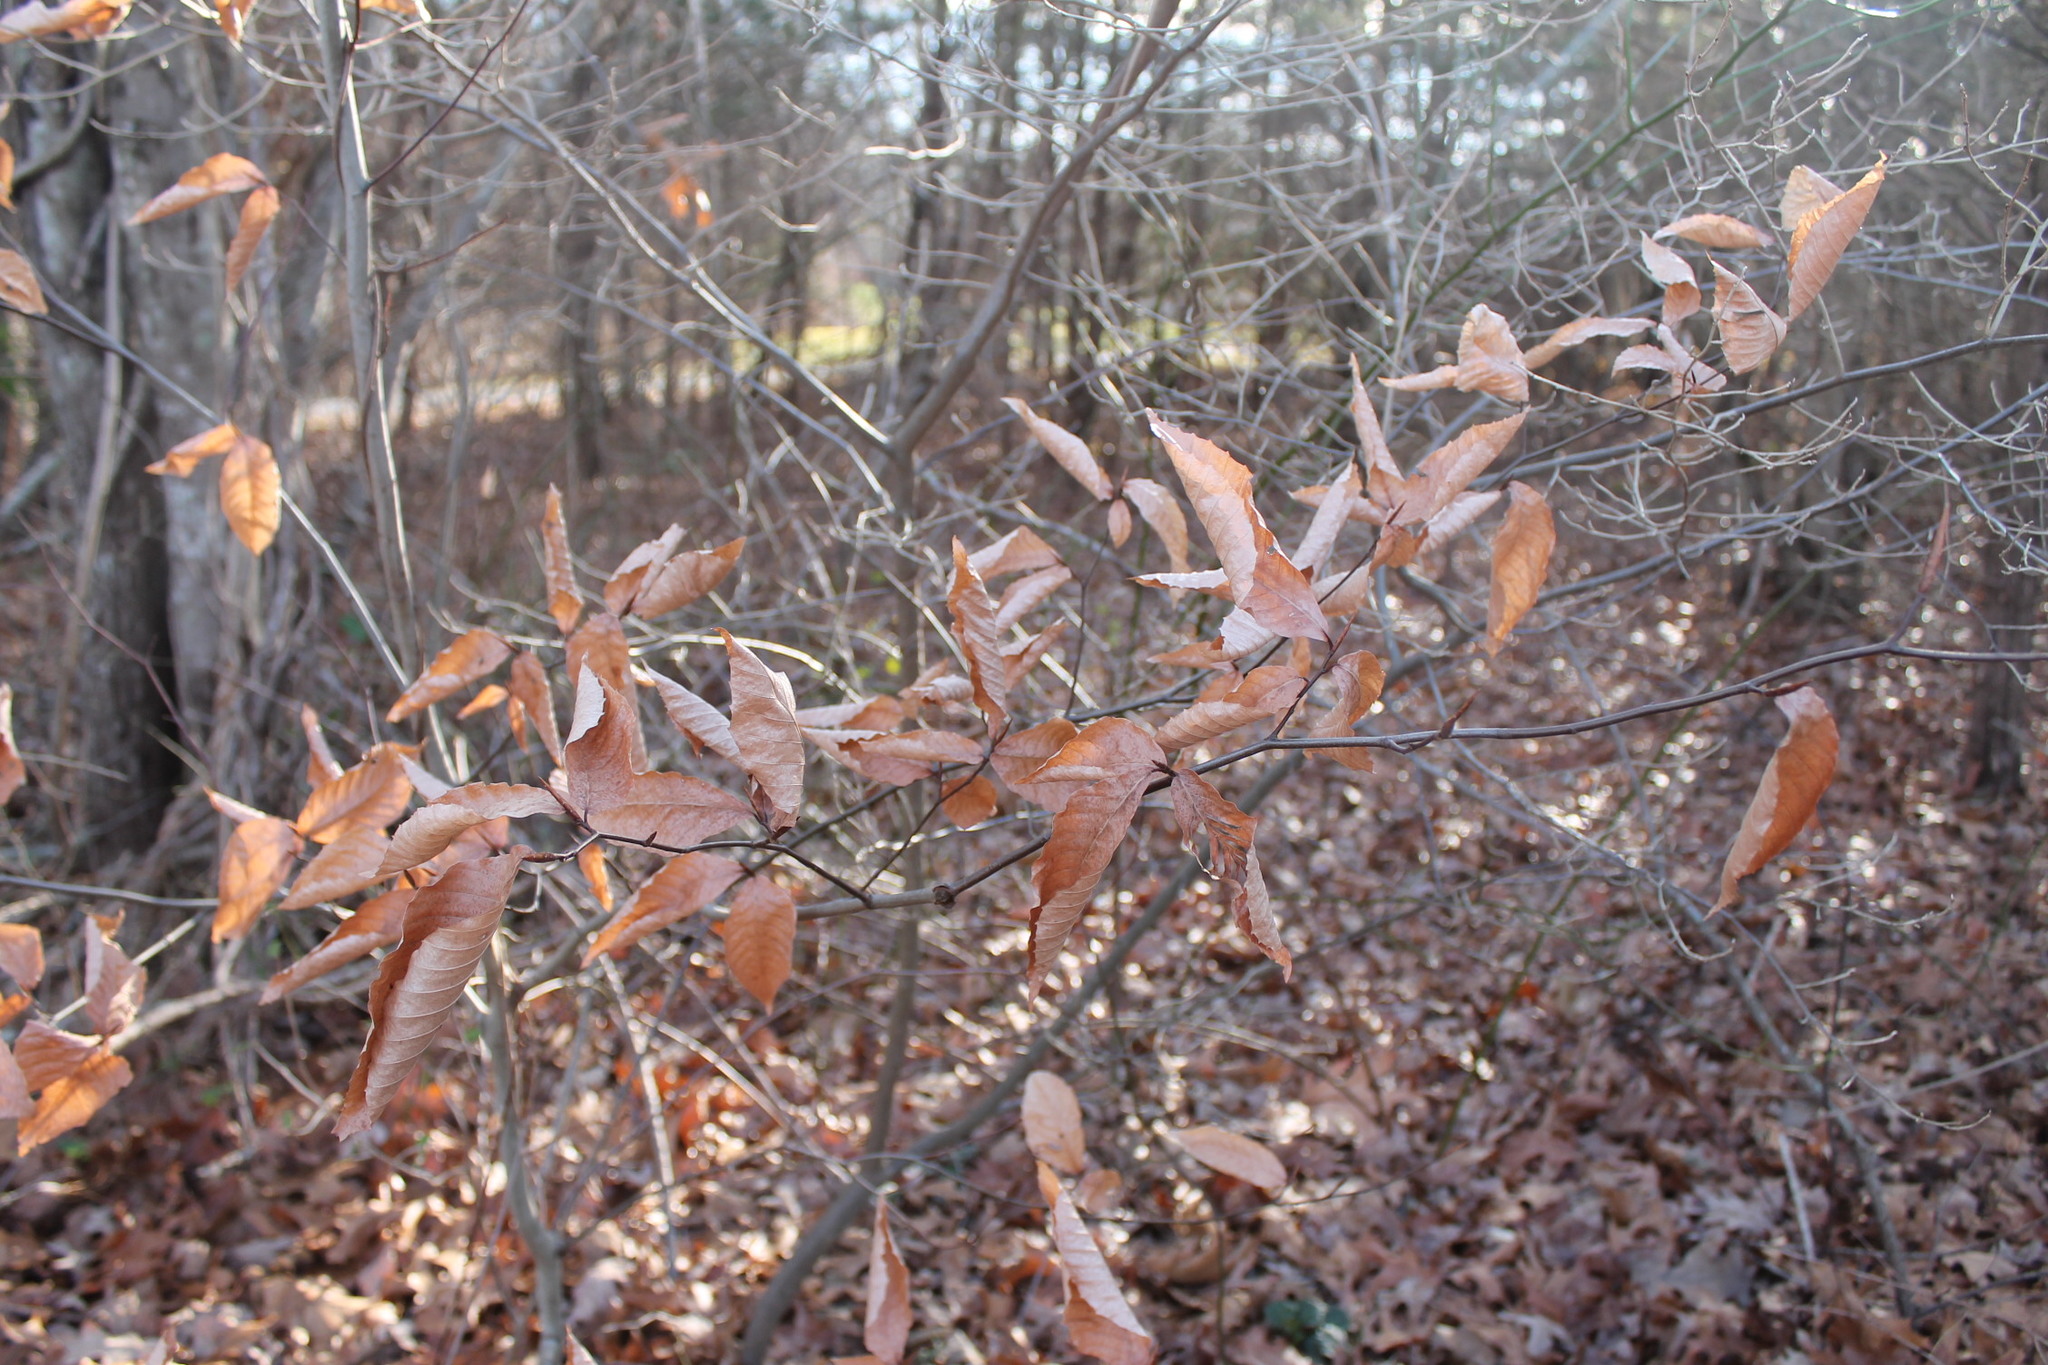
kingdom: Plantae
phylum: Tracheophyta
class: Magnoliopsida
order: Fagales
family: Fagaceae
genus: Fagus
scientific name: Fagus grandifolia
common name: American beech
